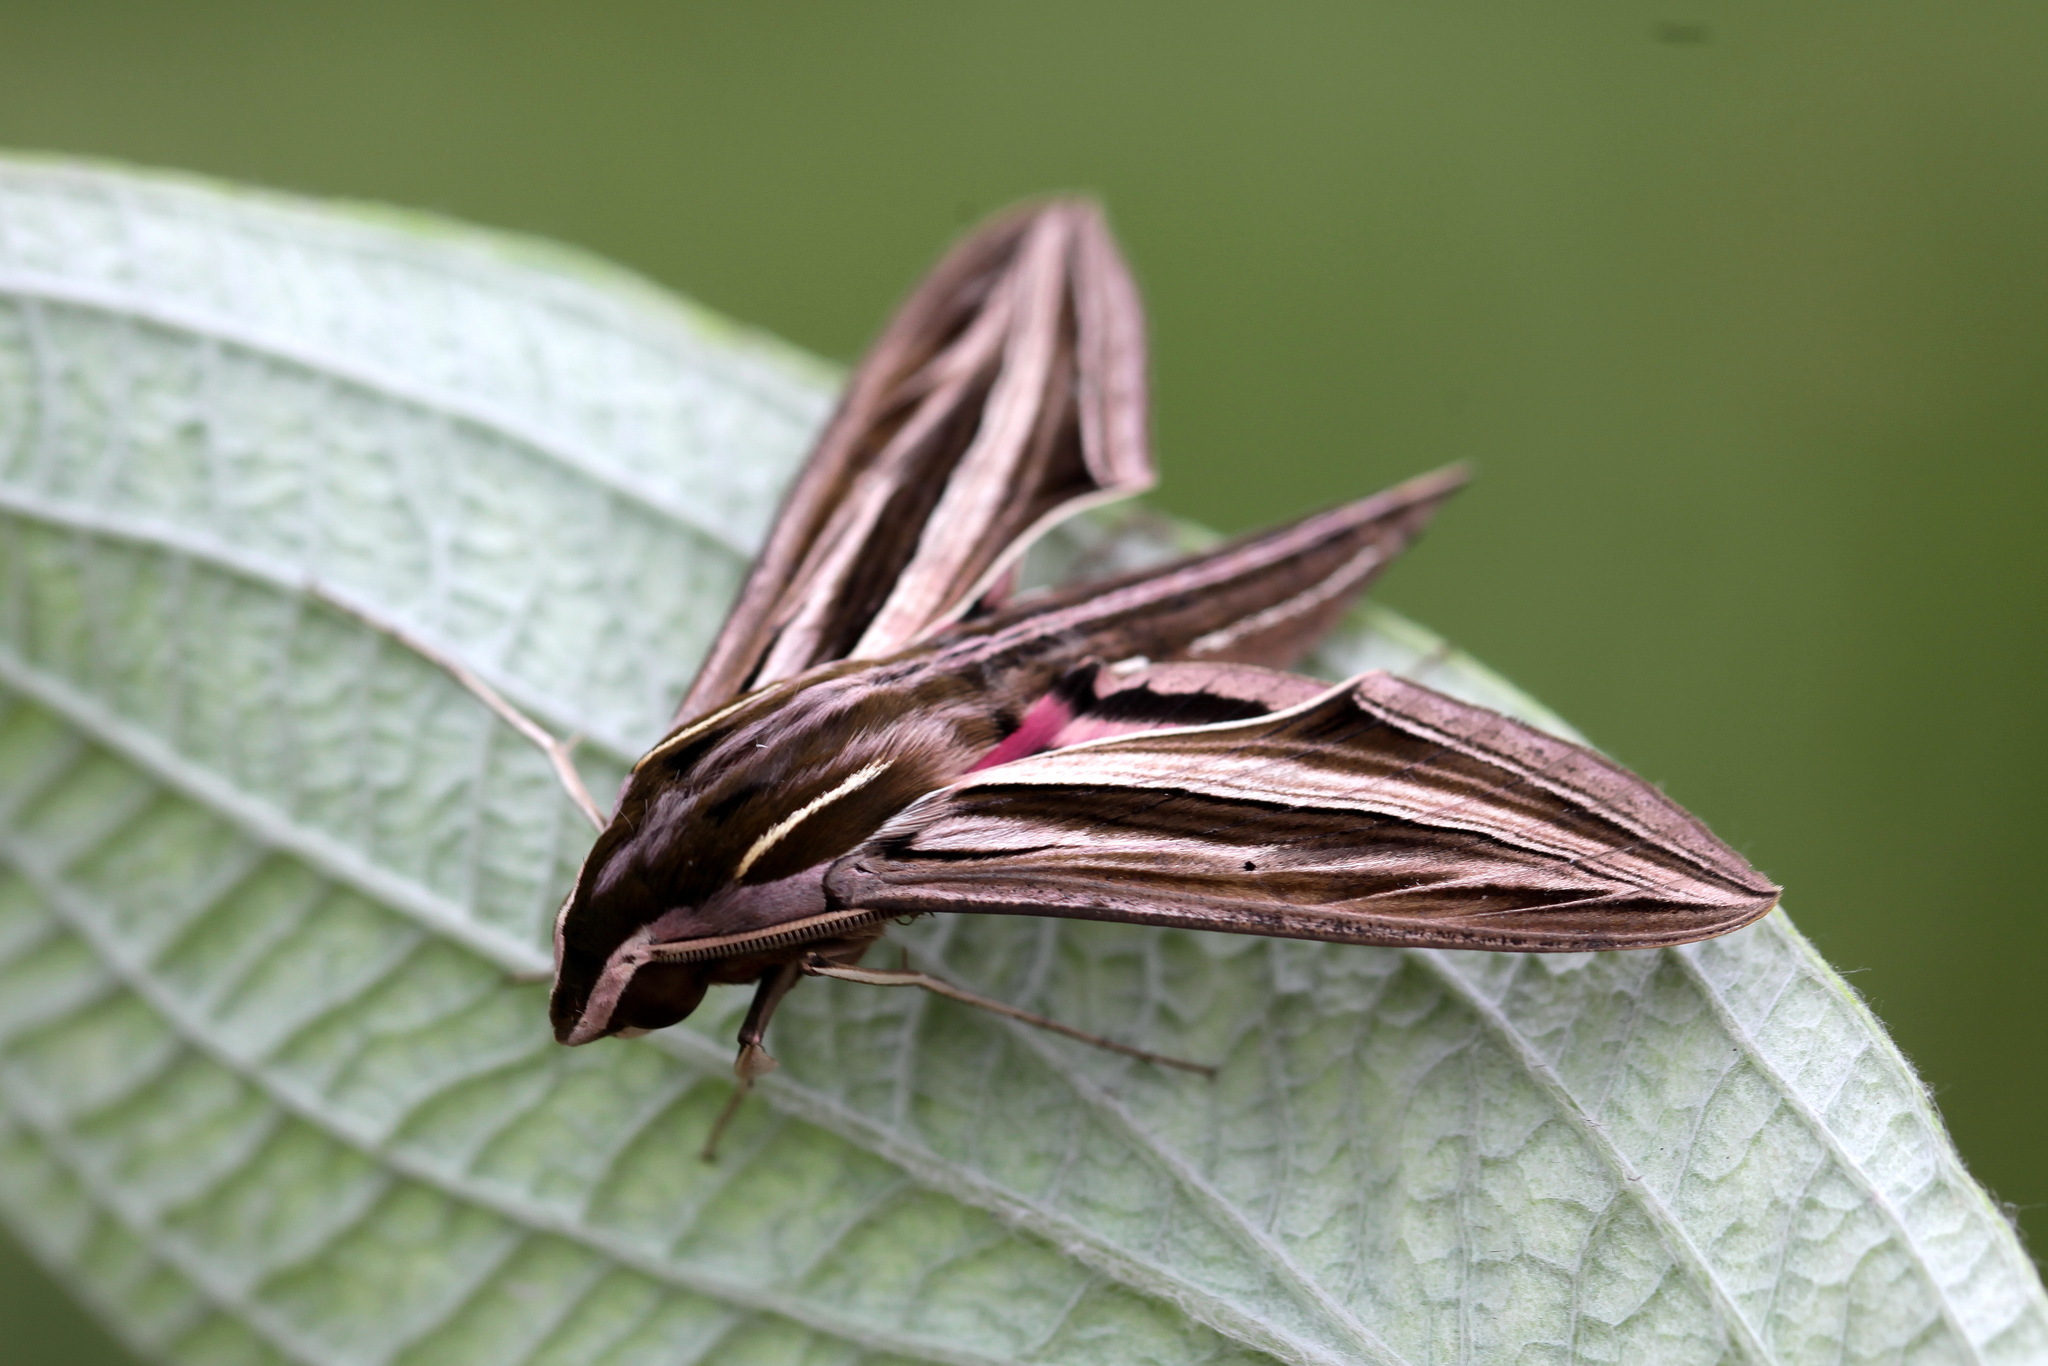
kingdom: Animalia
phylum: Arthropoda
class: Insecta
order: Lepidoptera
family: Sphingidae
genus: Hippotion
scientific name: Hippotion osiris
